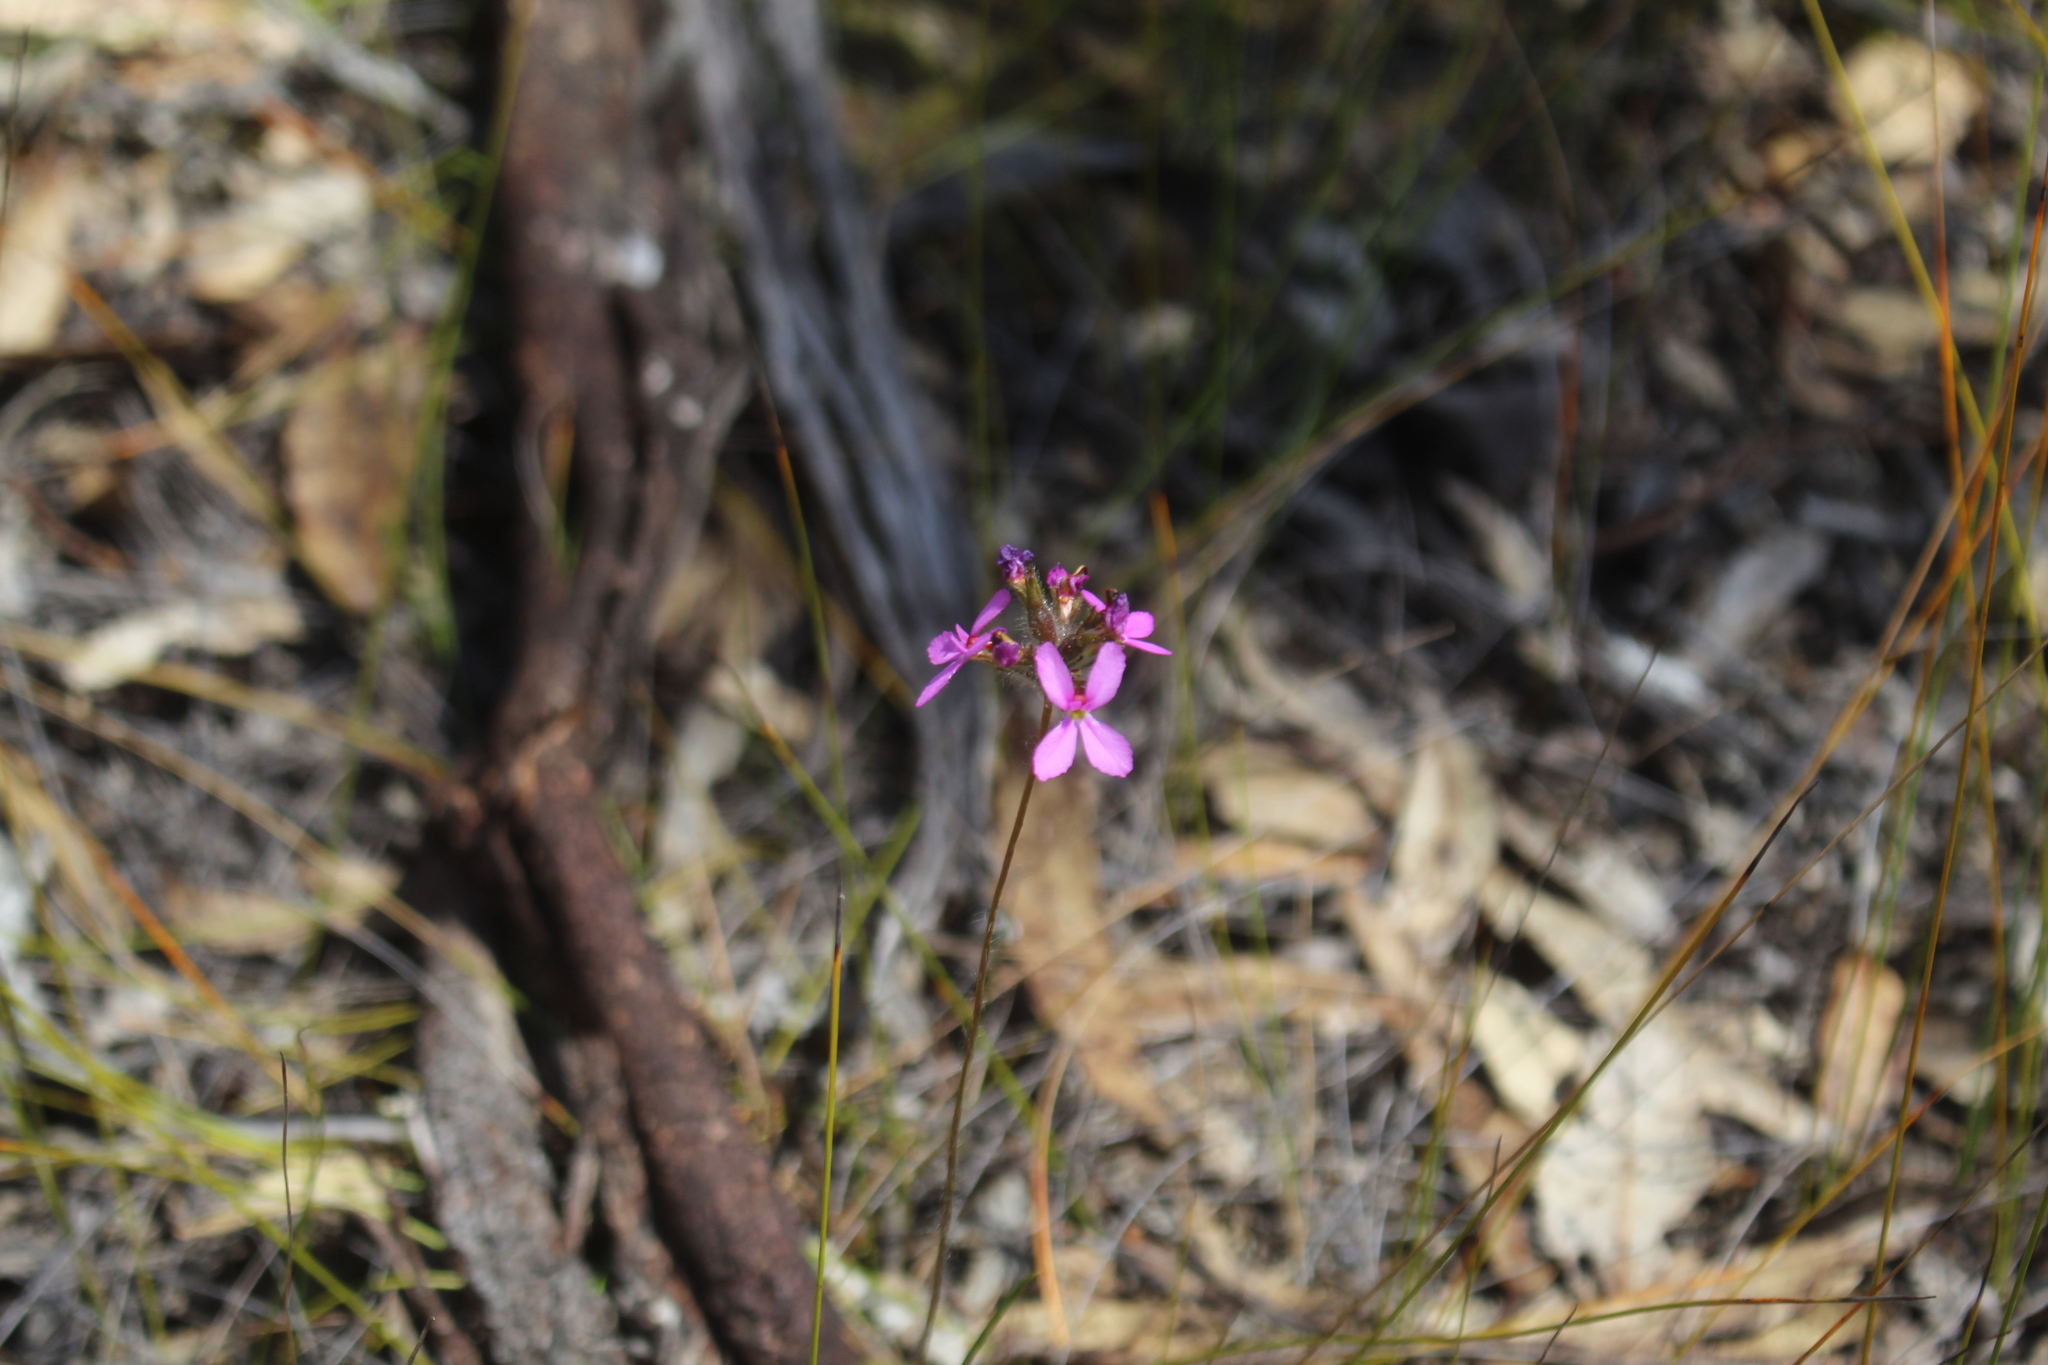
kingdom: Plantae
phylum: Tracheophyta
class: Magnoliopsida
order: Asterales
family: Stylidiaceae
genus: Stylidium
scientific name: Stylidium hirsutum
